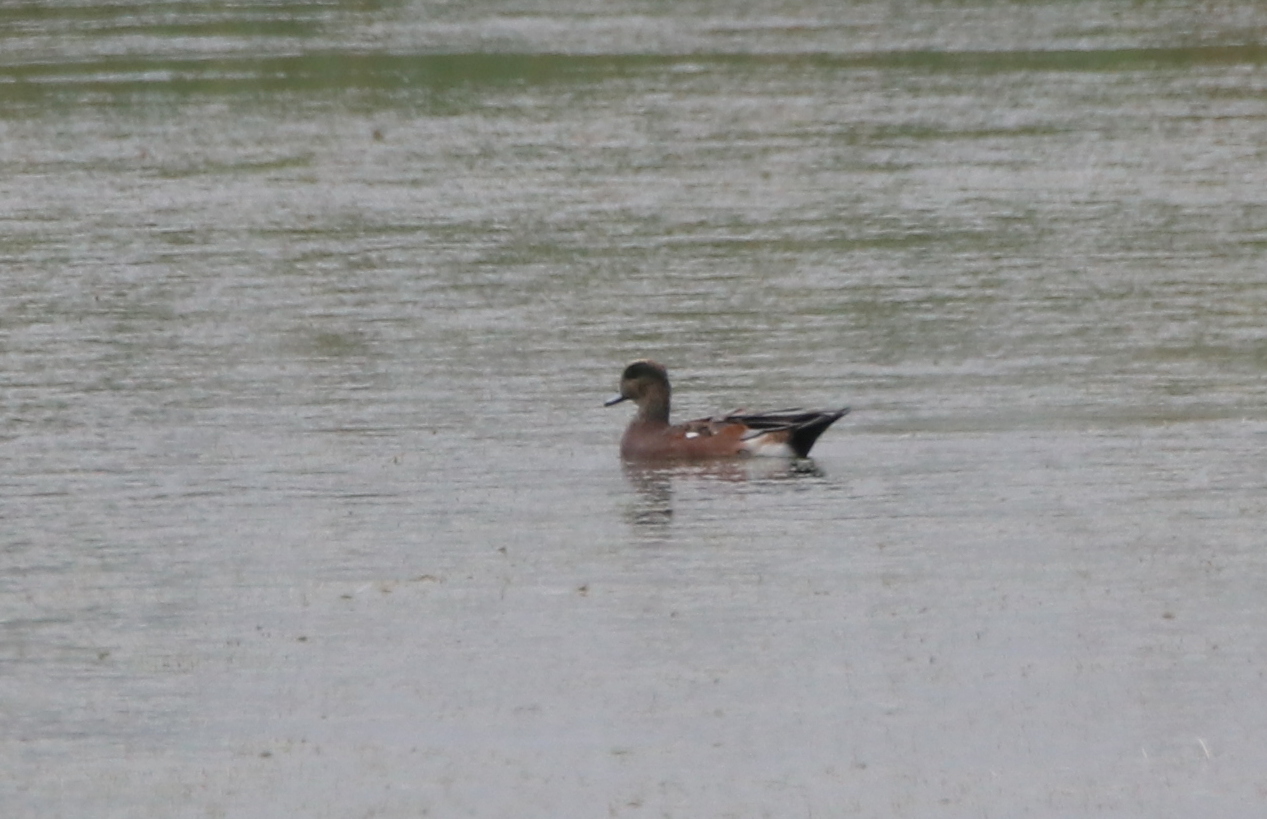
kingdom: Animalia
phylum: Chordata
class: Aves
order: Anseriformes
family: Anatidae
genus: Mareca
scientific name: Mareca americana
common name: American wigeon
